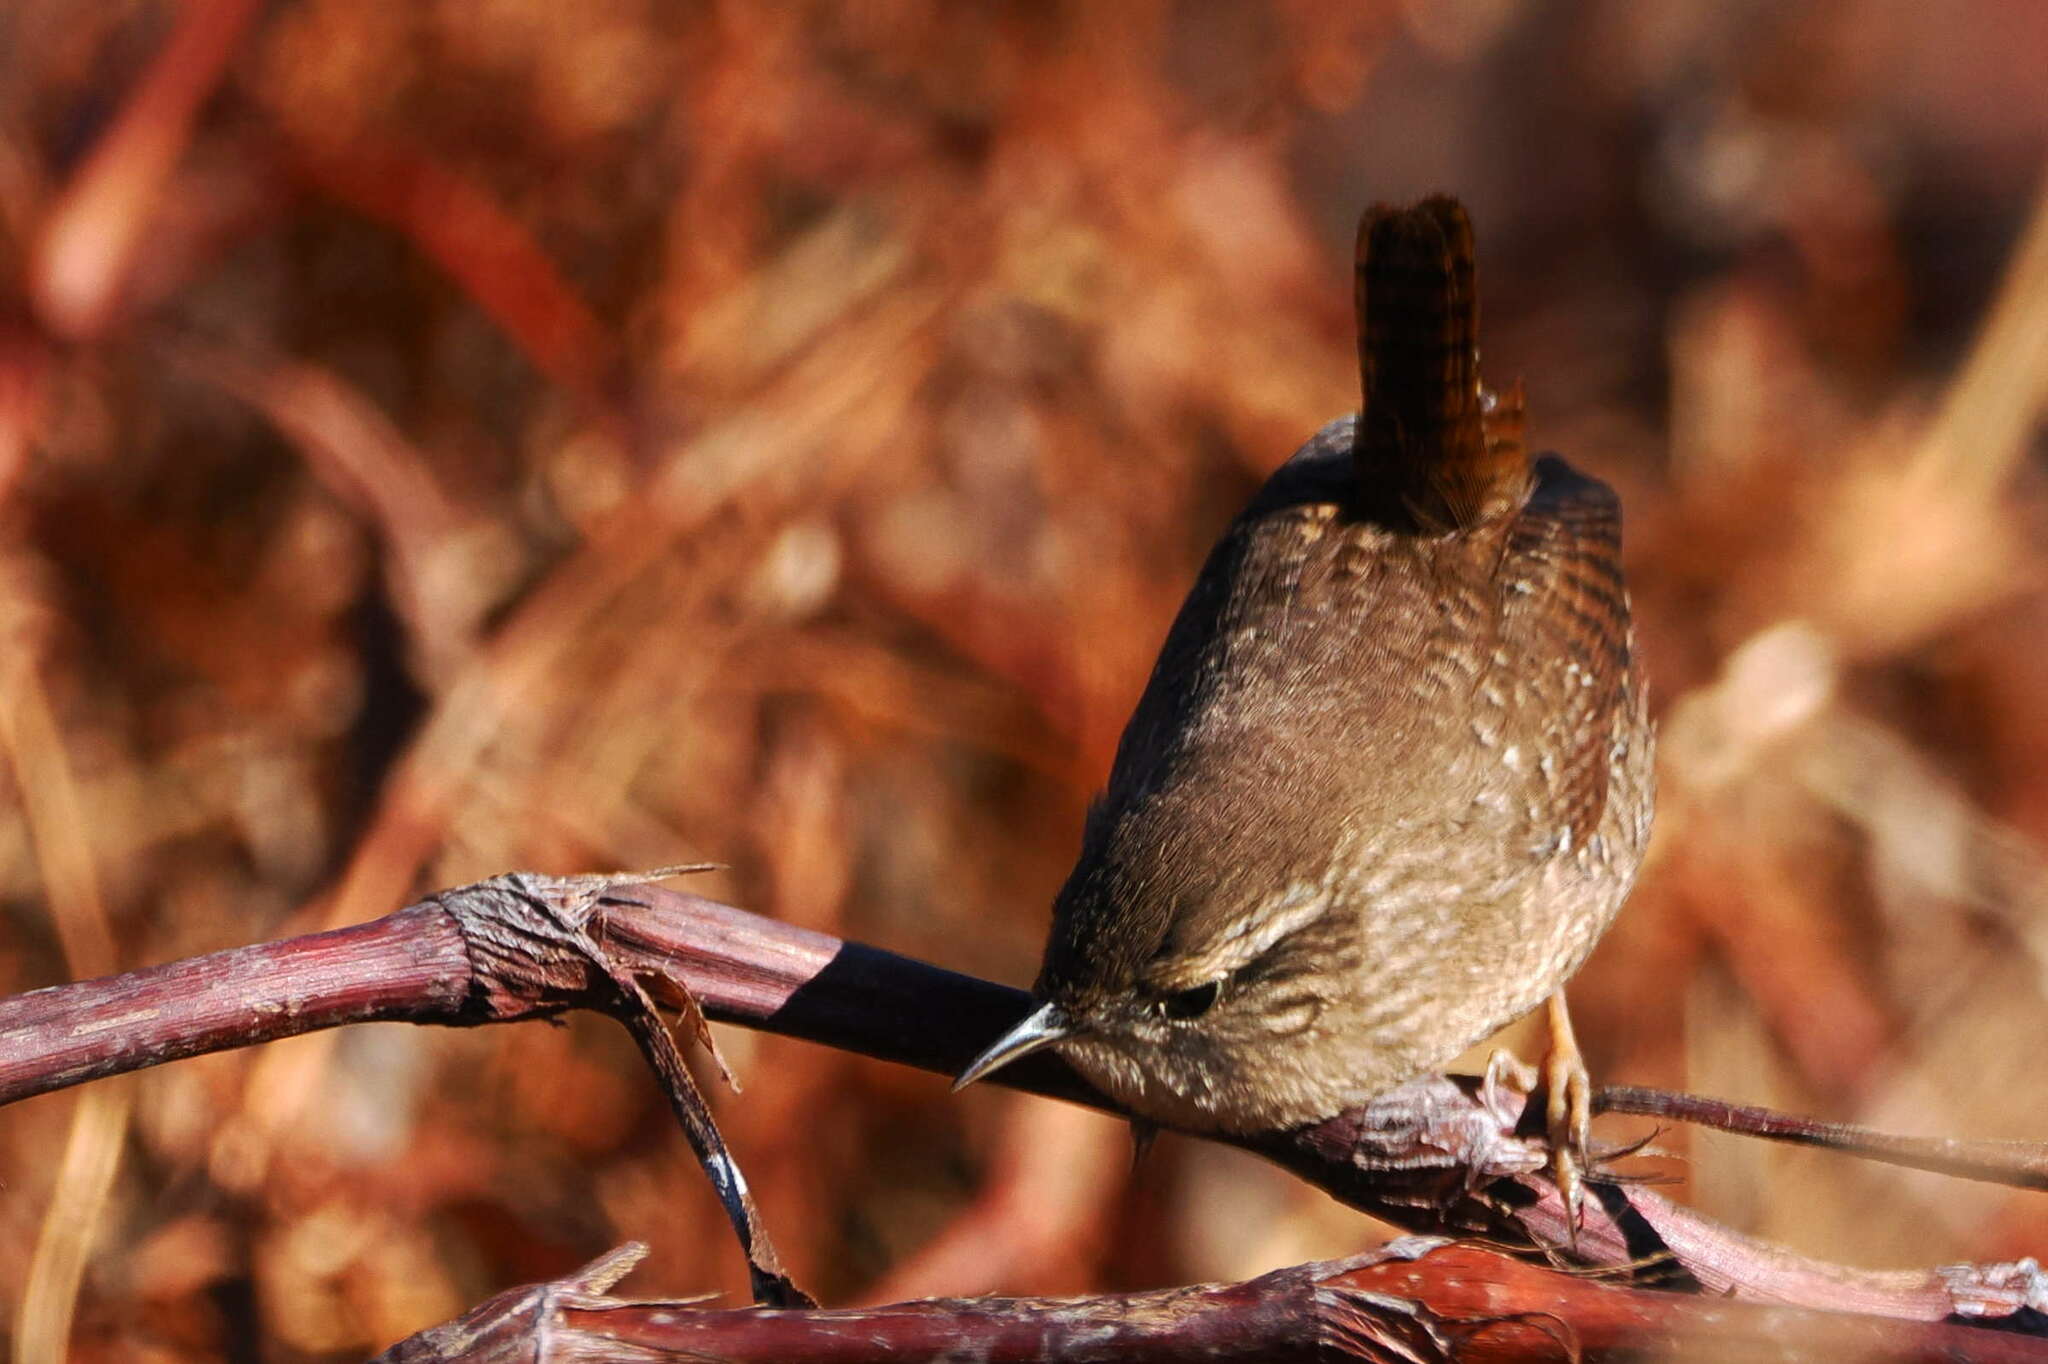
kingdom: Animalia
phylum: Chordata
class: Aves
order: Passeriformes
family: Troglodytidae
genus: Troglodytes
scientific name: Troglodytes hiemalis
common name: Winter wren
